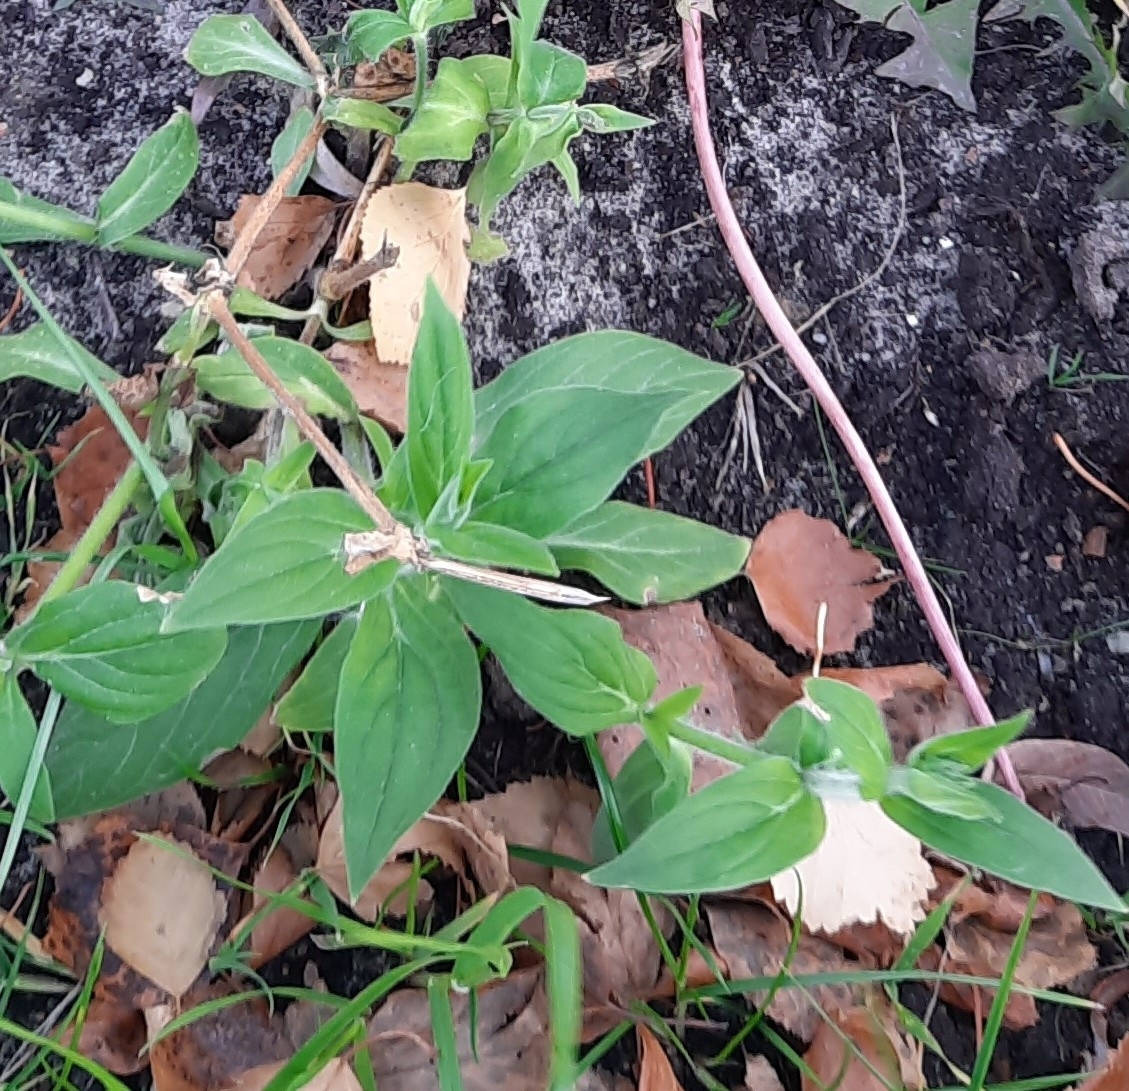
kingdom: Plantae
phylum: Tracheophyta
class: Magnoliopsida
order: Caryophyllales
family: Caryophyllaceae
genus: Silene
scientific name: Silene latifolia
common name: White campion
